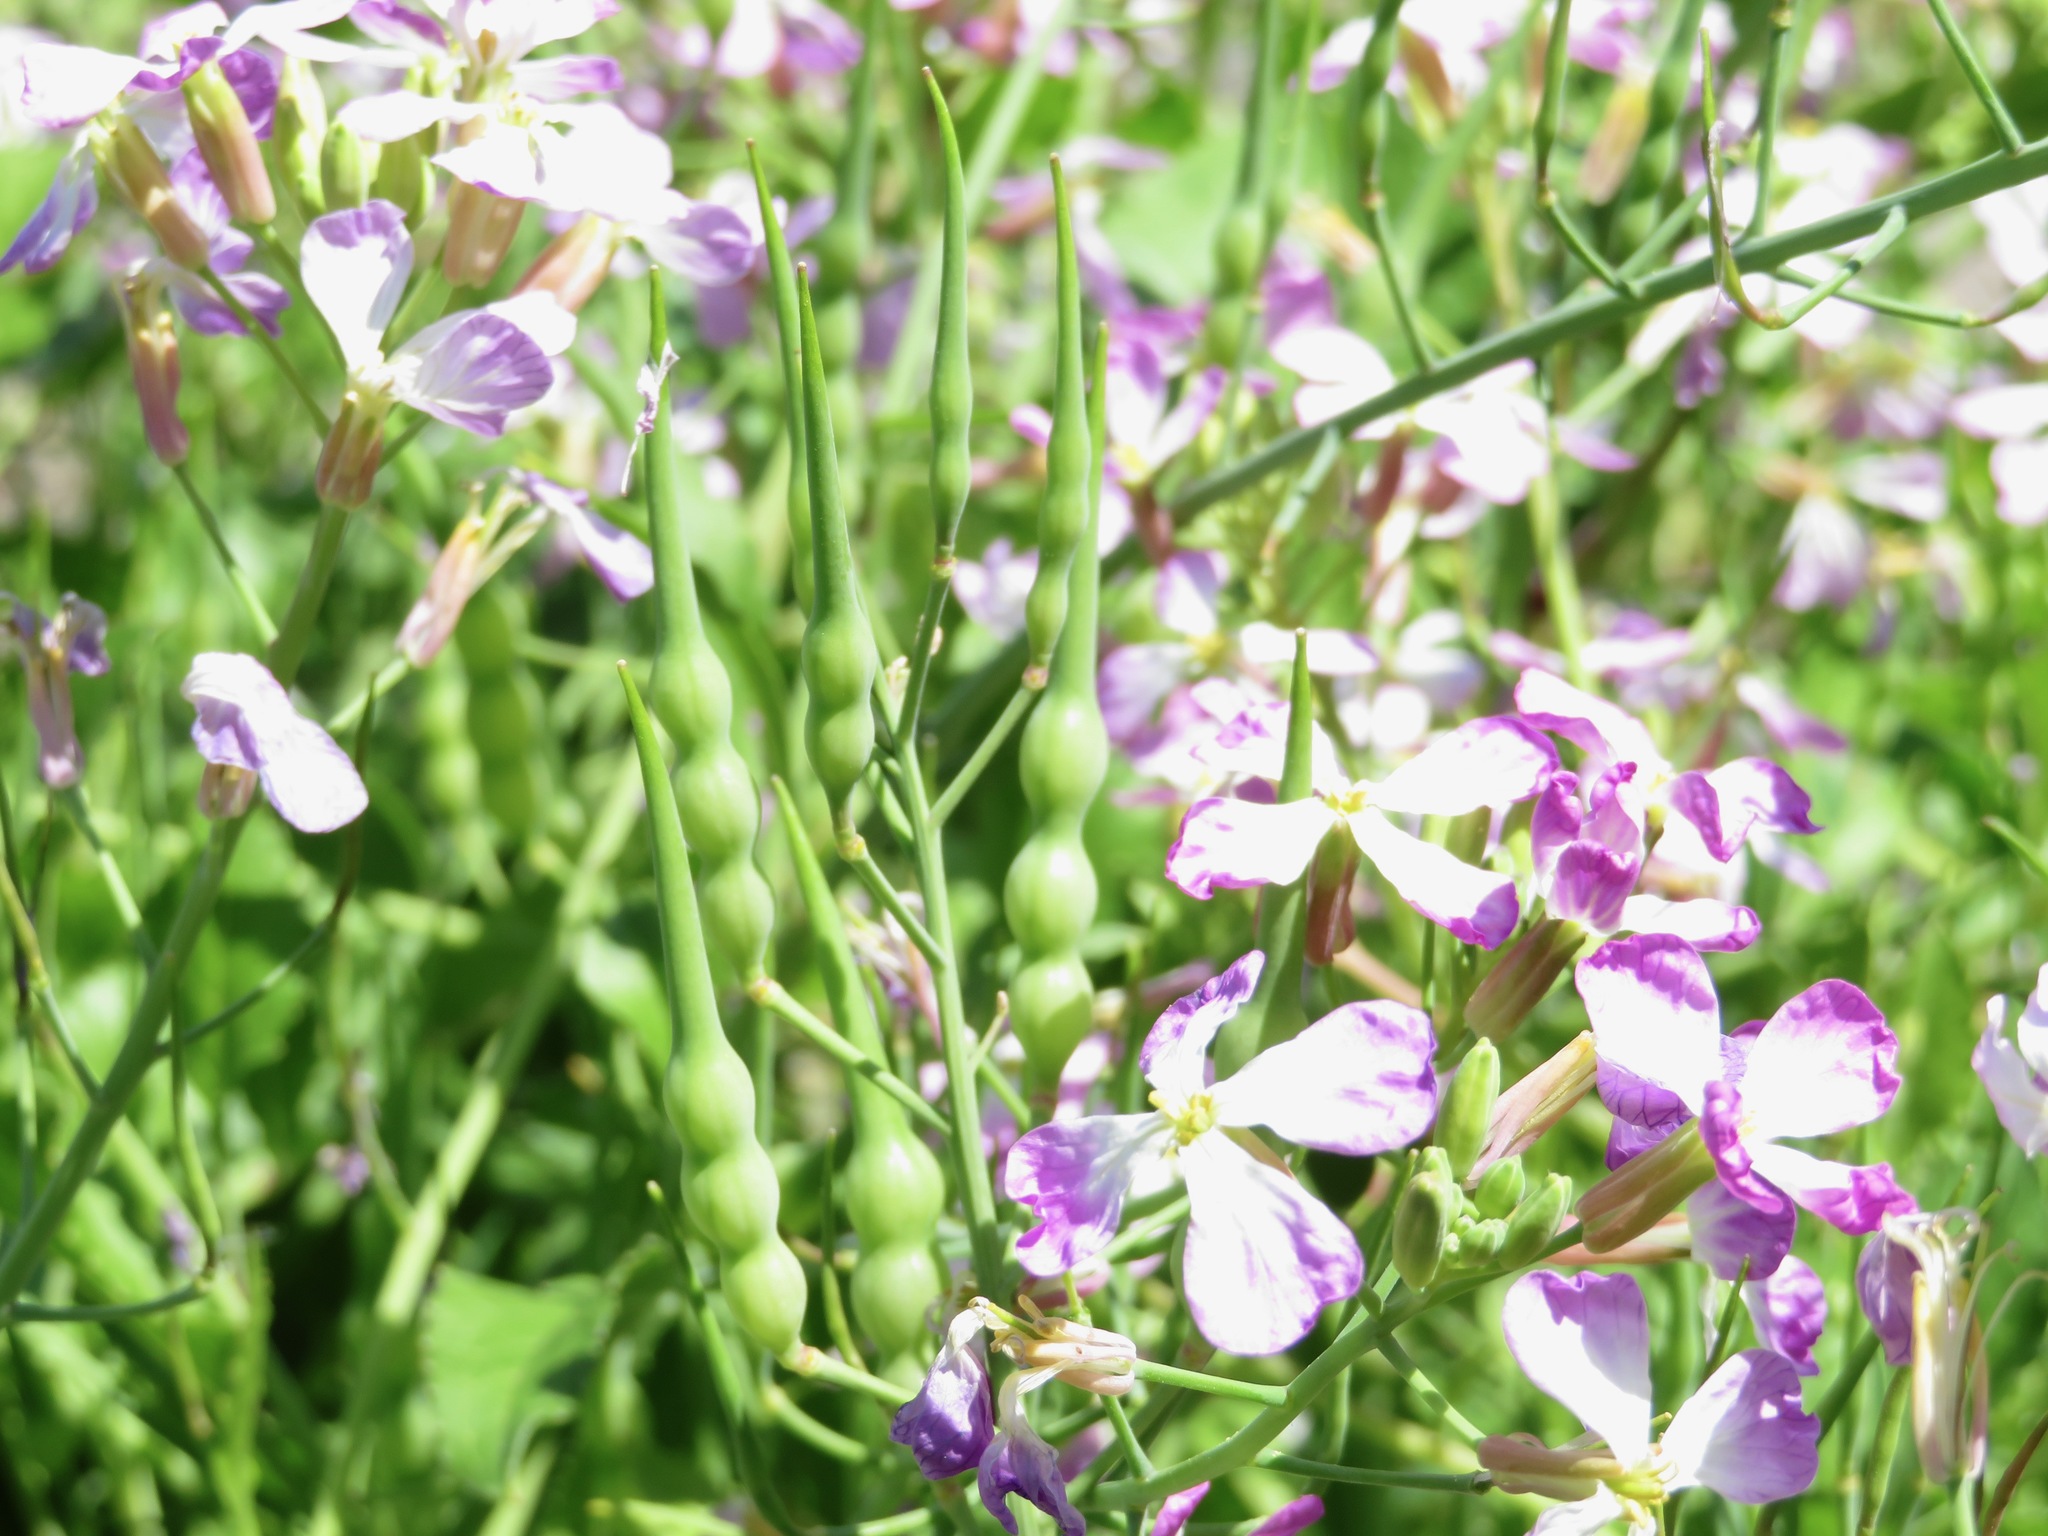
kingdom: Plantae
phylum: Tracheophyta
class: Magnoliopsida
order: Brassicales
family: Brassicaceae
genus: Raphanus
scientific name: Raphanus sativus
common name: Cultivated radish
